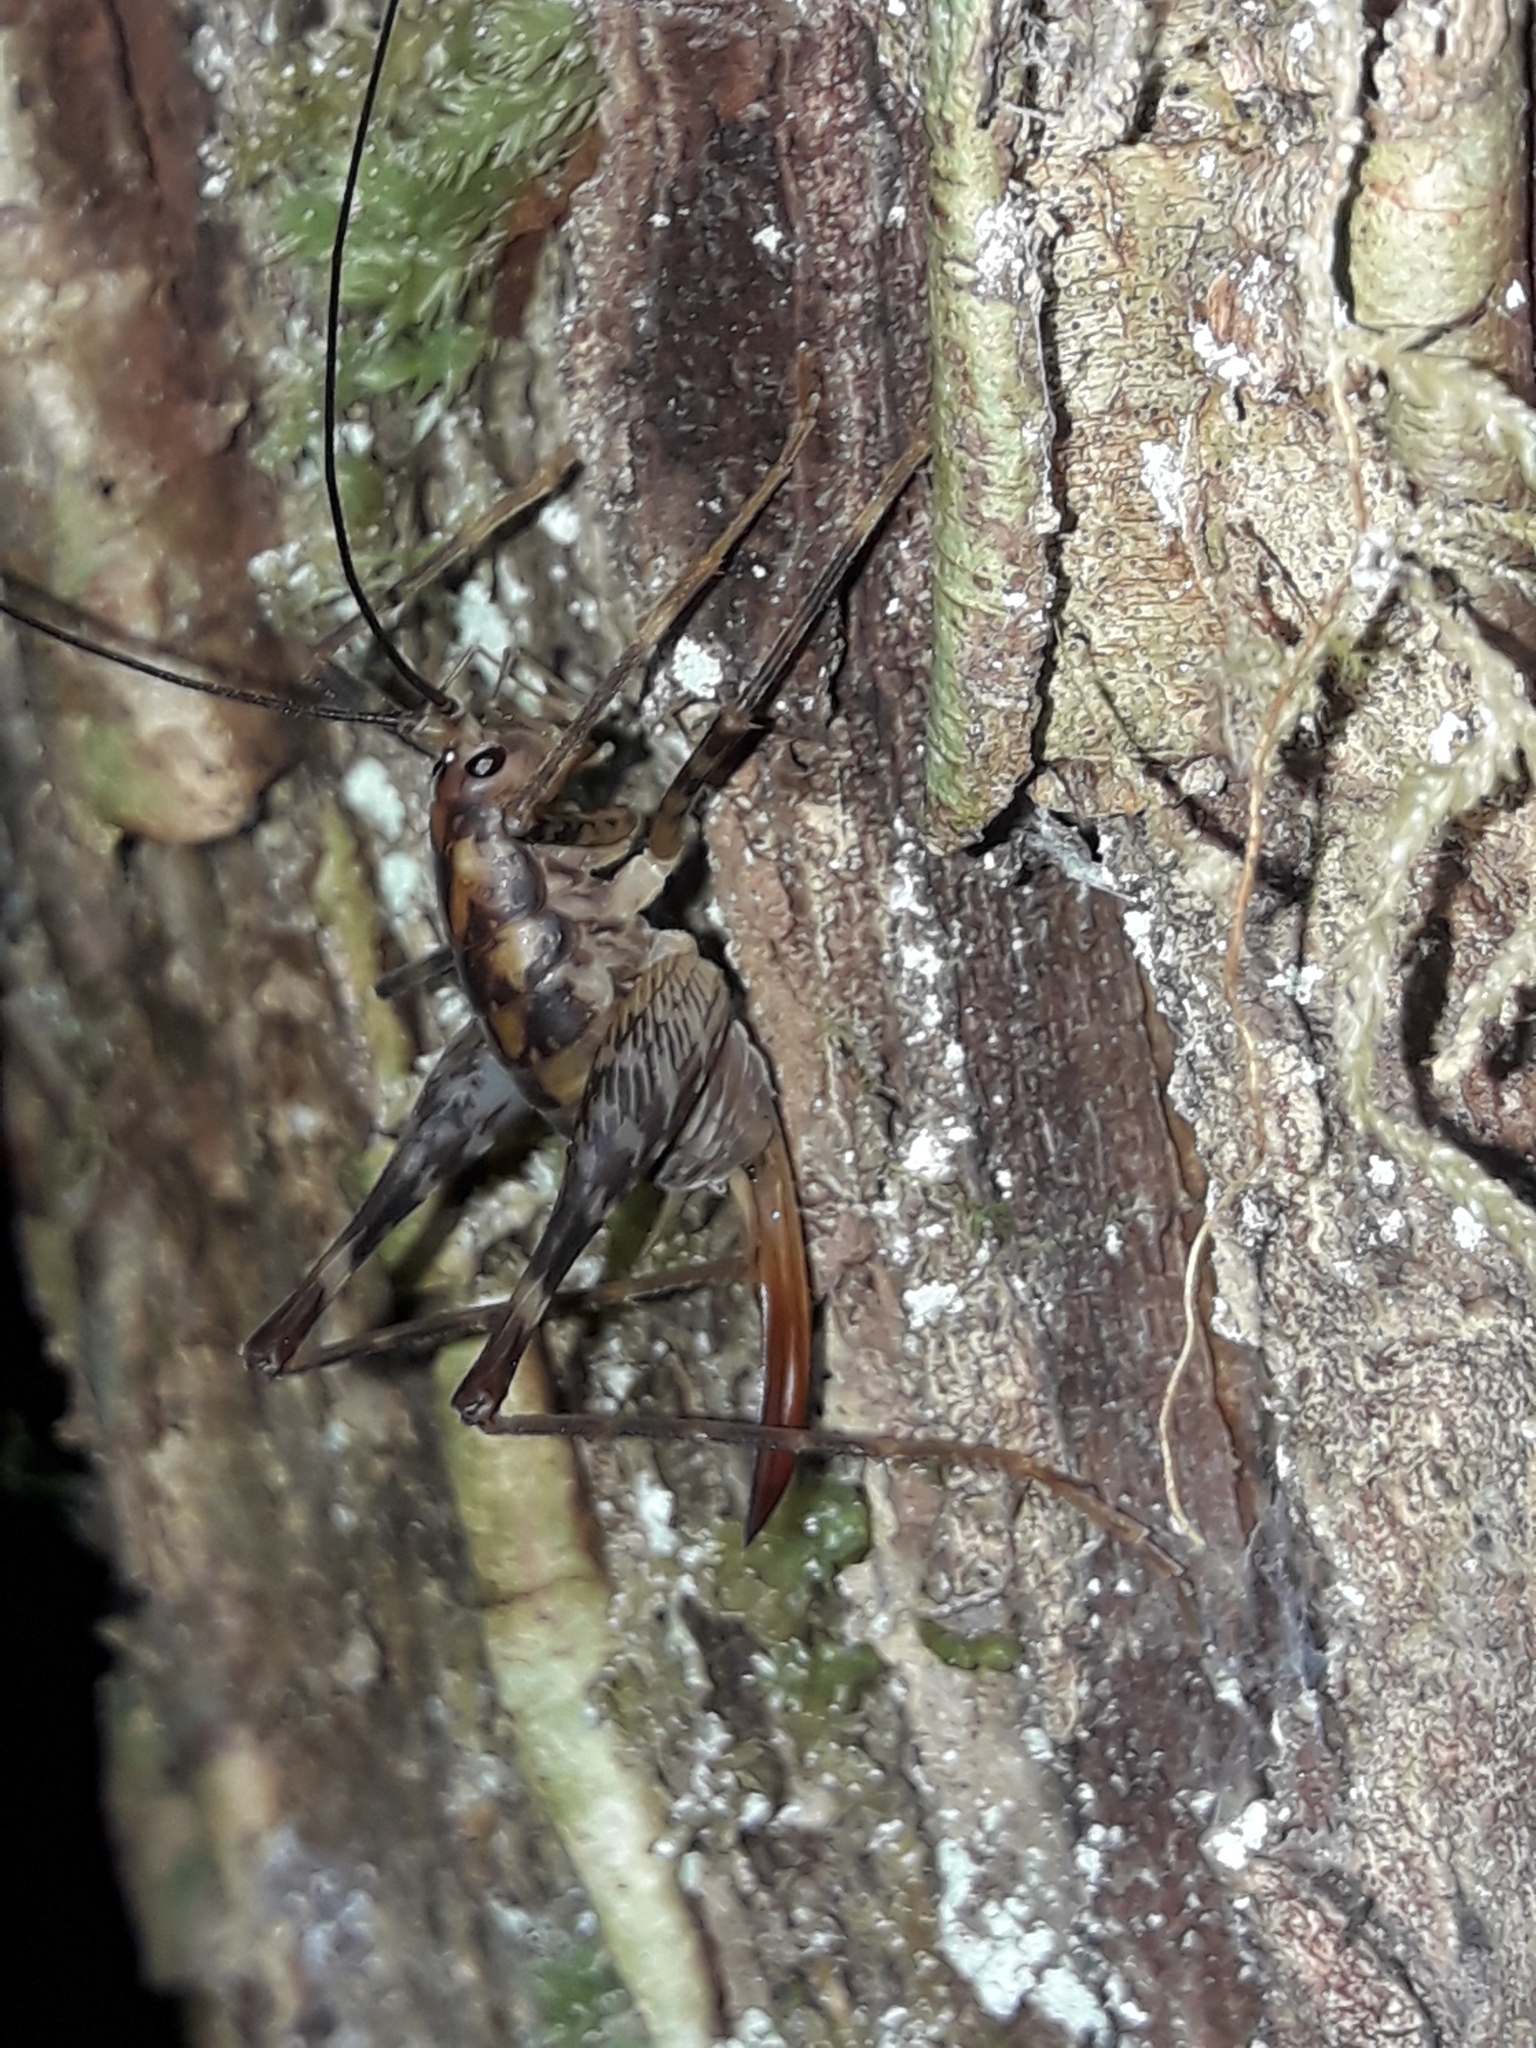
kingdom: Animalia
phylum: Arthropoda
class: Insecta
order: Orthoptera
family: Rhaphidophoridae
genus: Miotopus
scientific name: Miotopus richardsae
